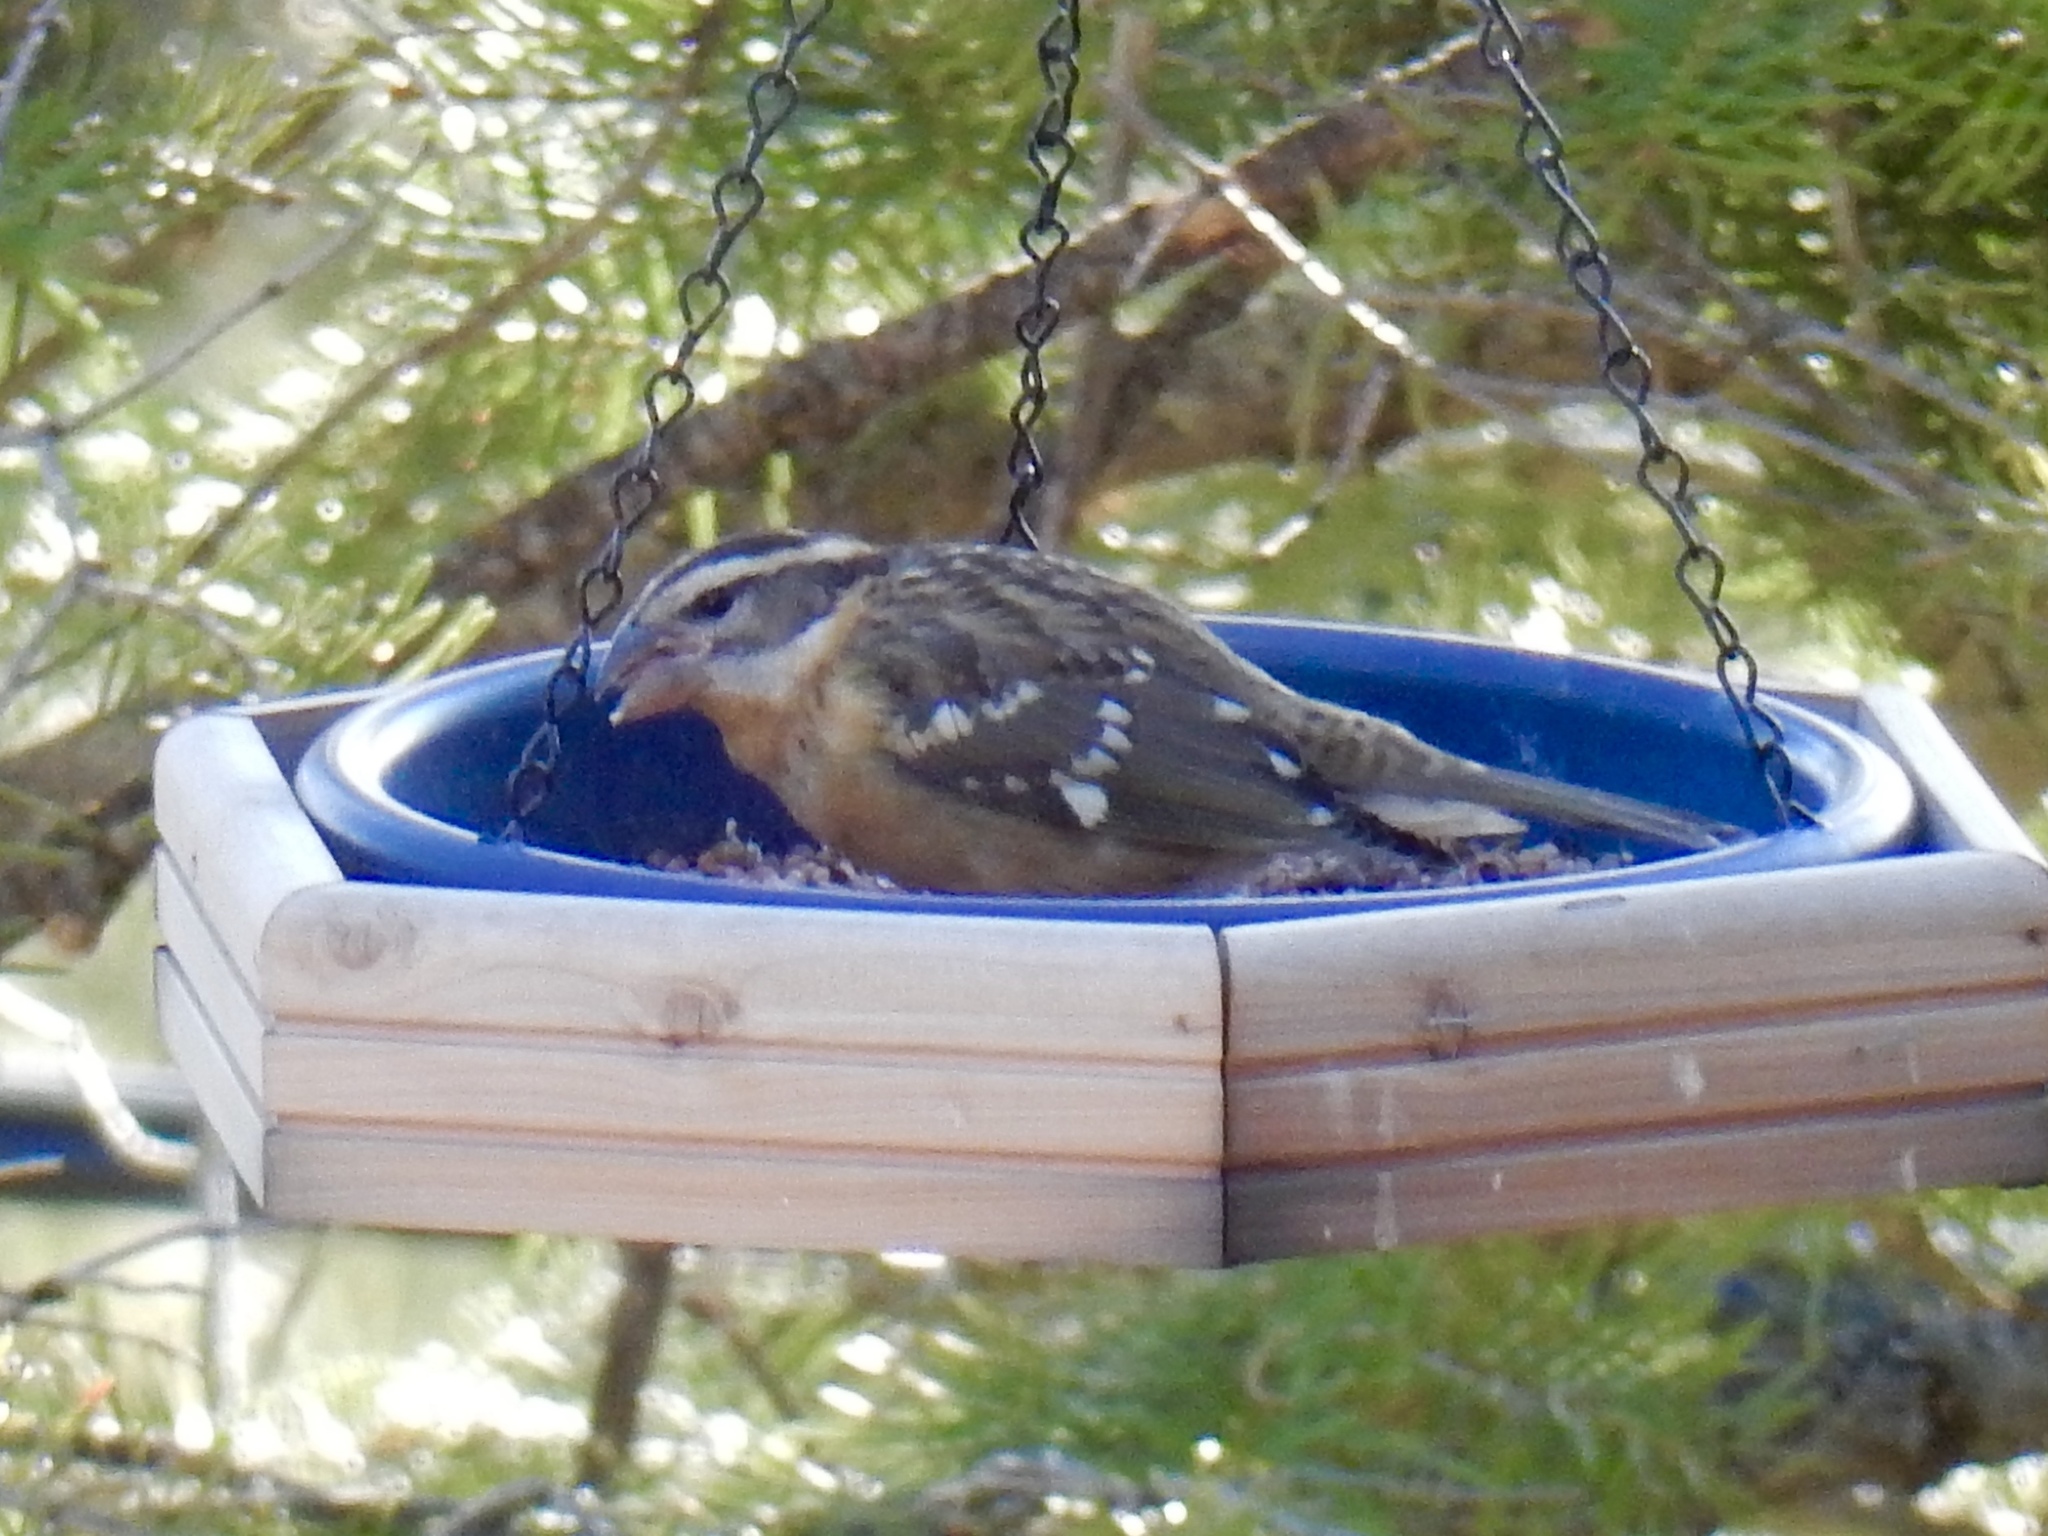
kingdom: Animalia
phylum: Chordata
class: Aves
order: Passeriformes
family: Cardinalidae
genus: Pheucticus
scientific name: Pheucticus melanocephalus
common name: Black-headed grosbeak
